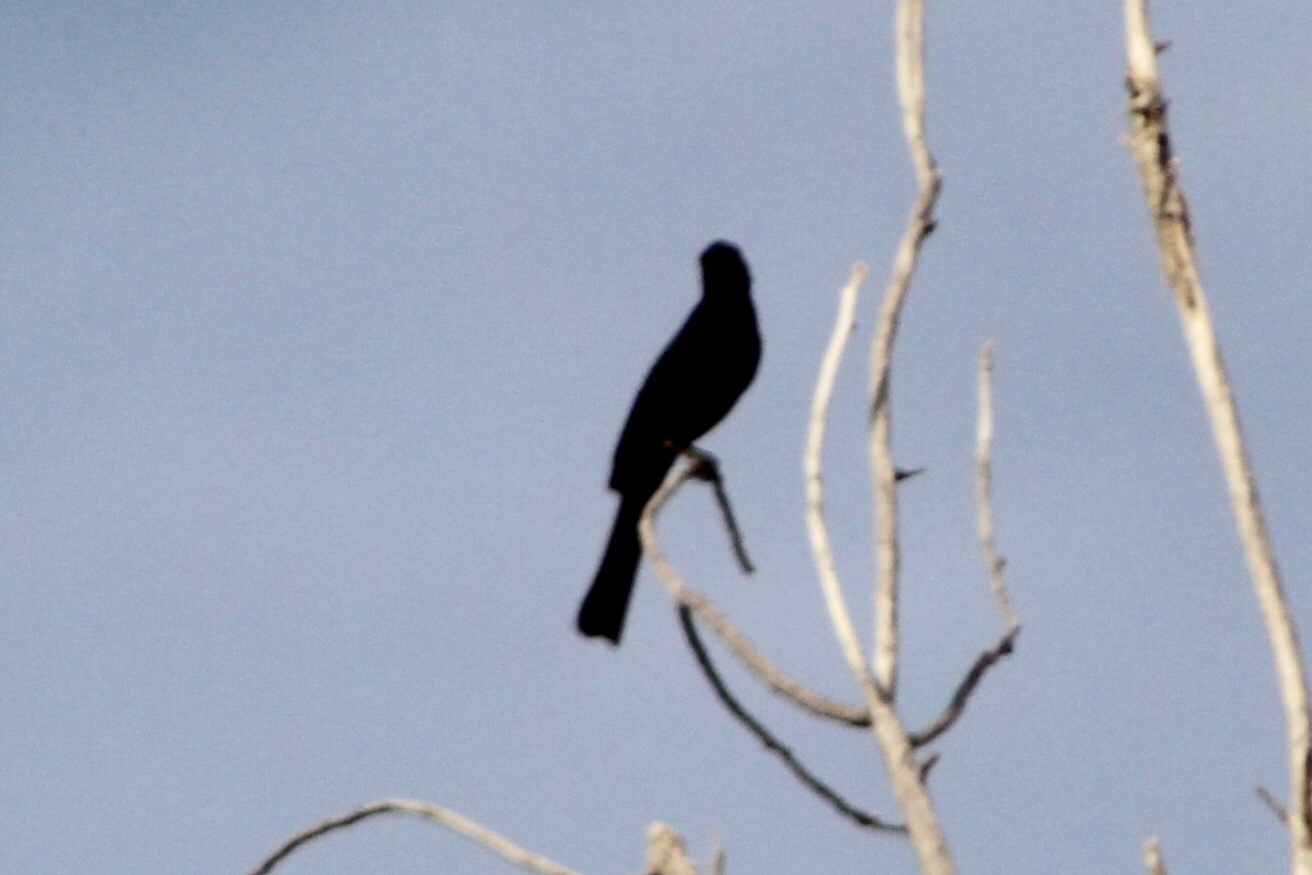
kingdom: Animalia
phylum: Chordata
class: Aves
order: Passeriformes
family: Ptilogonatidae
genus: Phainopepla
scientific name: Phainopepla nitens
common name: Phainopepla
